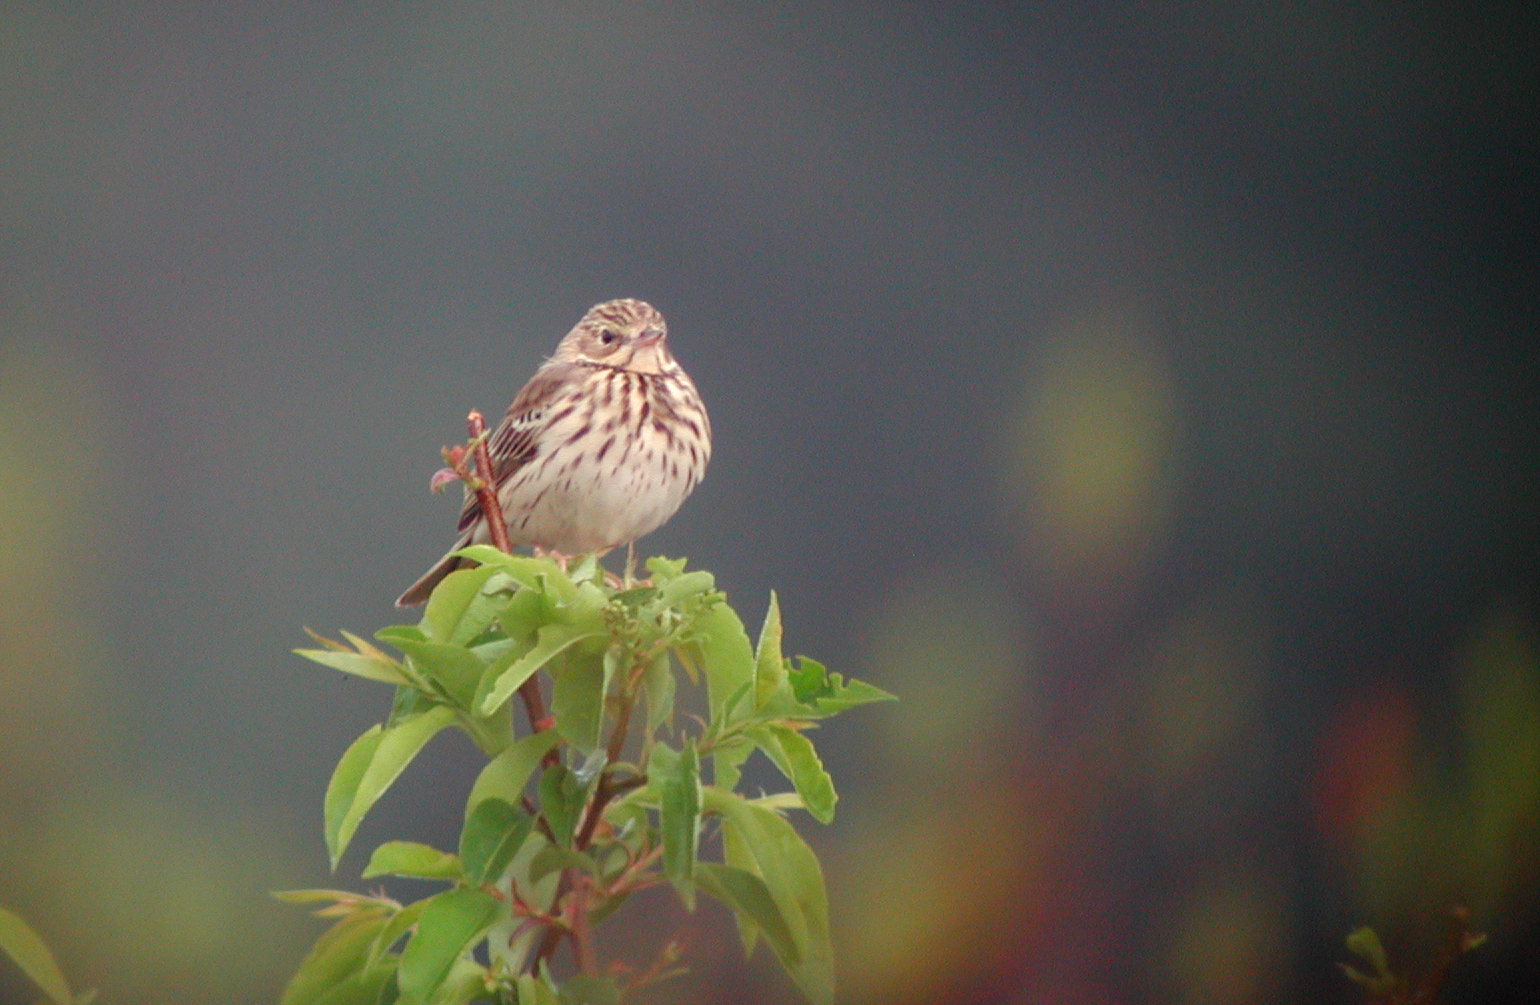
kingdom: Animalia
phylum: Chordata
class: Aves
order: Passeriformes
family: Motacillidae
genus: Anthus
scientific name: Anthus trivialis
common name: Tree pipit
